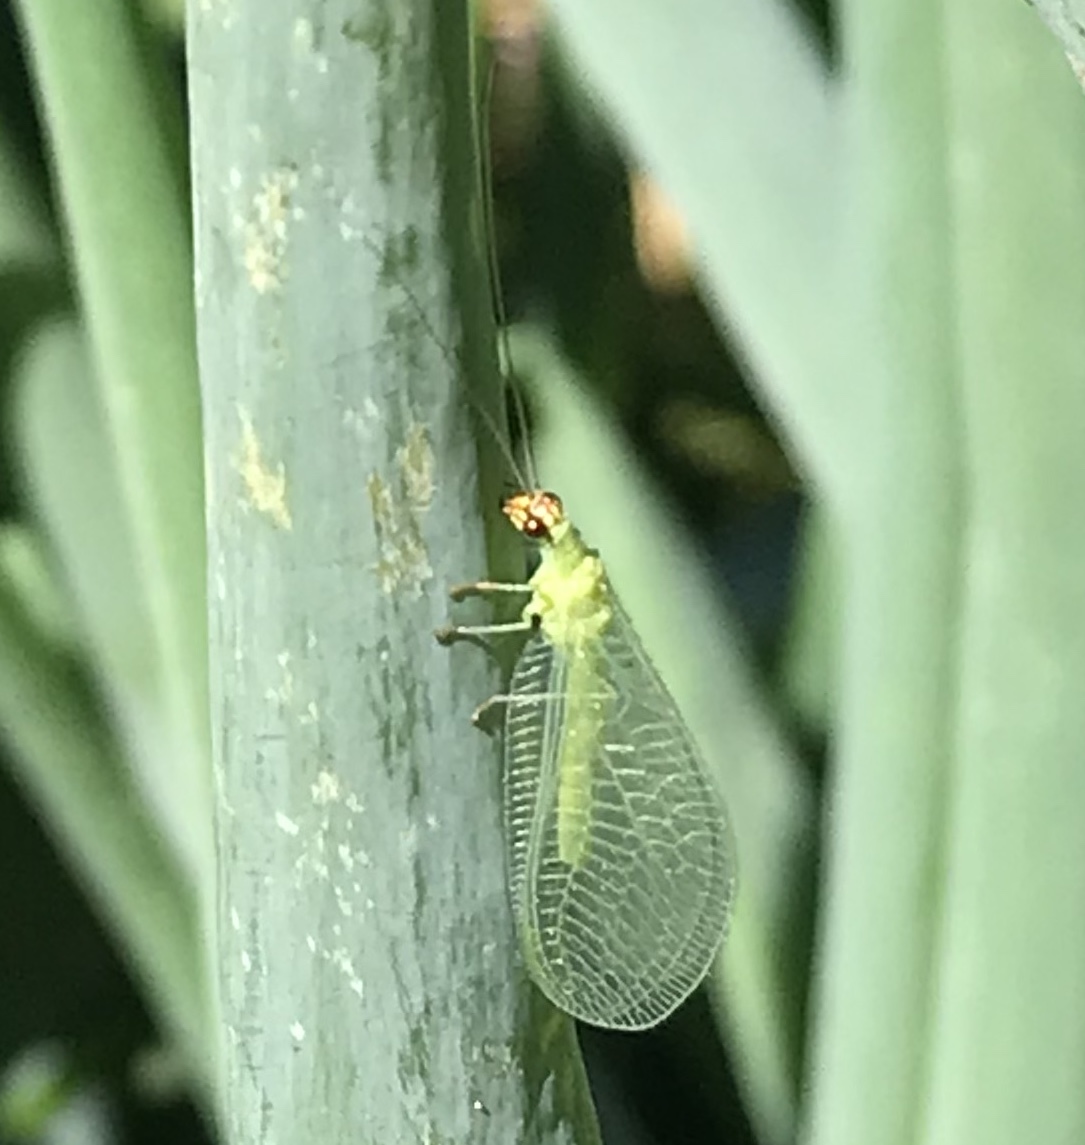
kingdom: Animalia
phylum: Arthropoda
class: Insecta
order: Neuroptera
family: Chrysopidae
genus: Chrysopa
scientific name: Chrysopa oculata
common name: Golden-eyed lacewing
